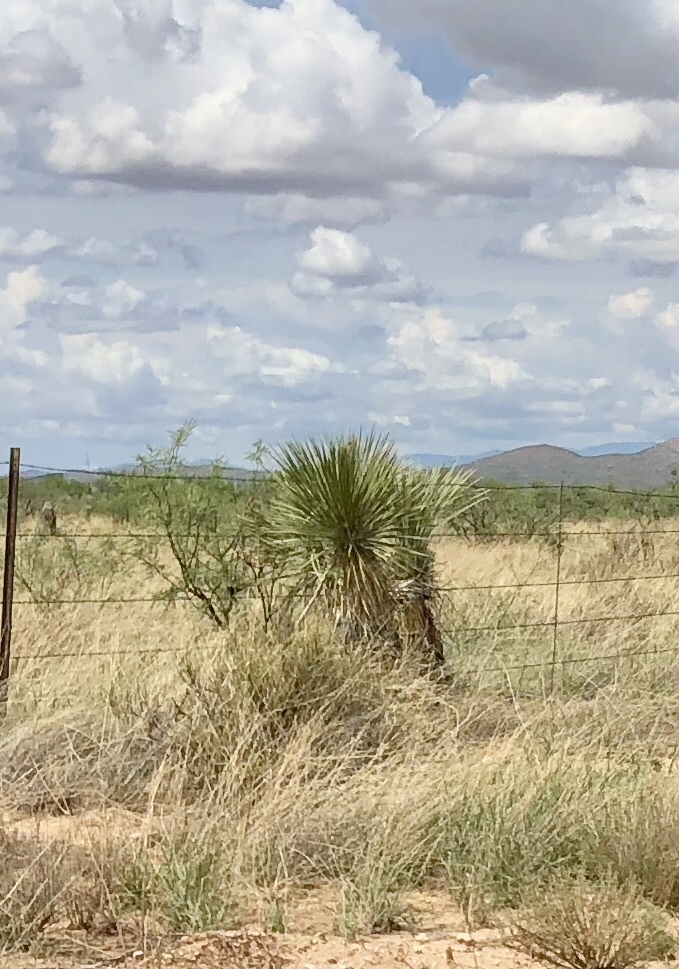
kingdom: Plantae
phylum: Tracheophyta
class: Liliopsida
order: Asparagales
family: Asparagaceae
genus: Yucca
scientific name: Yucca elata
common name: Palmella
